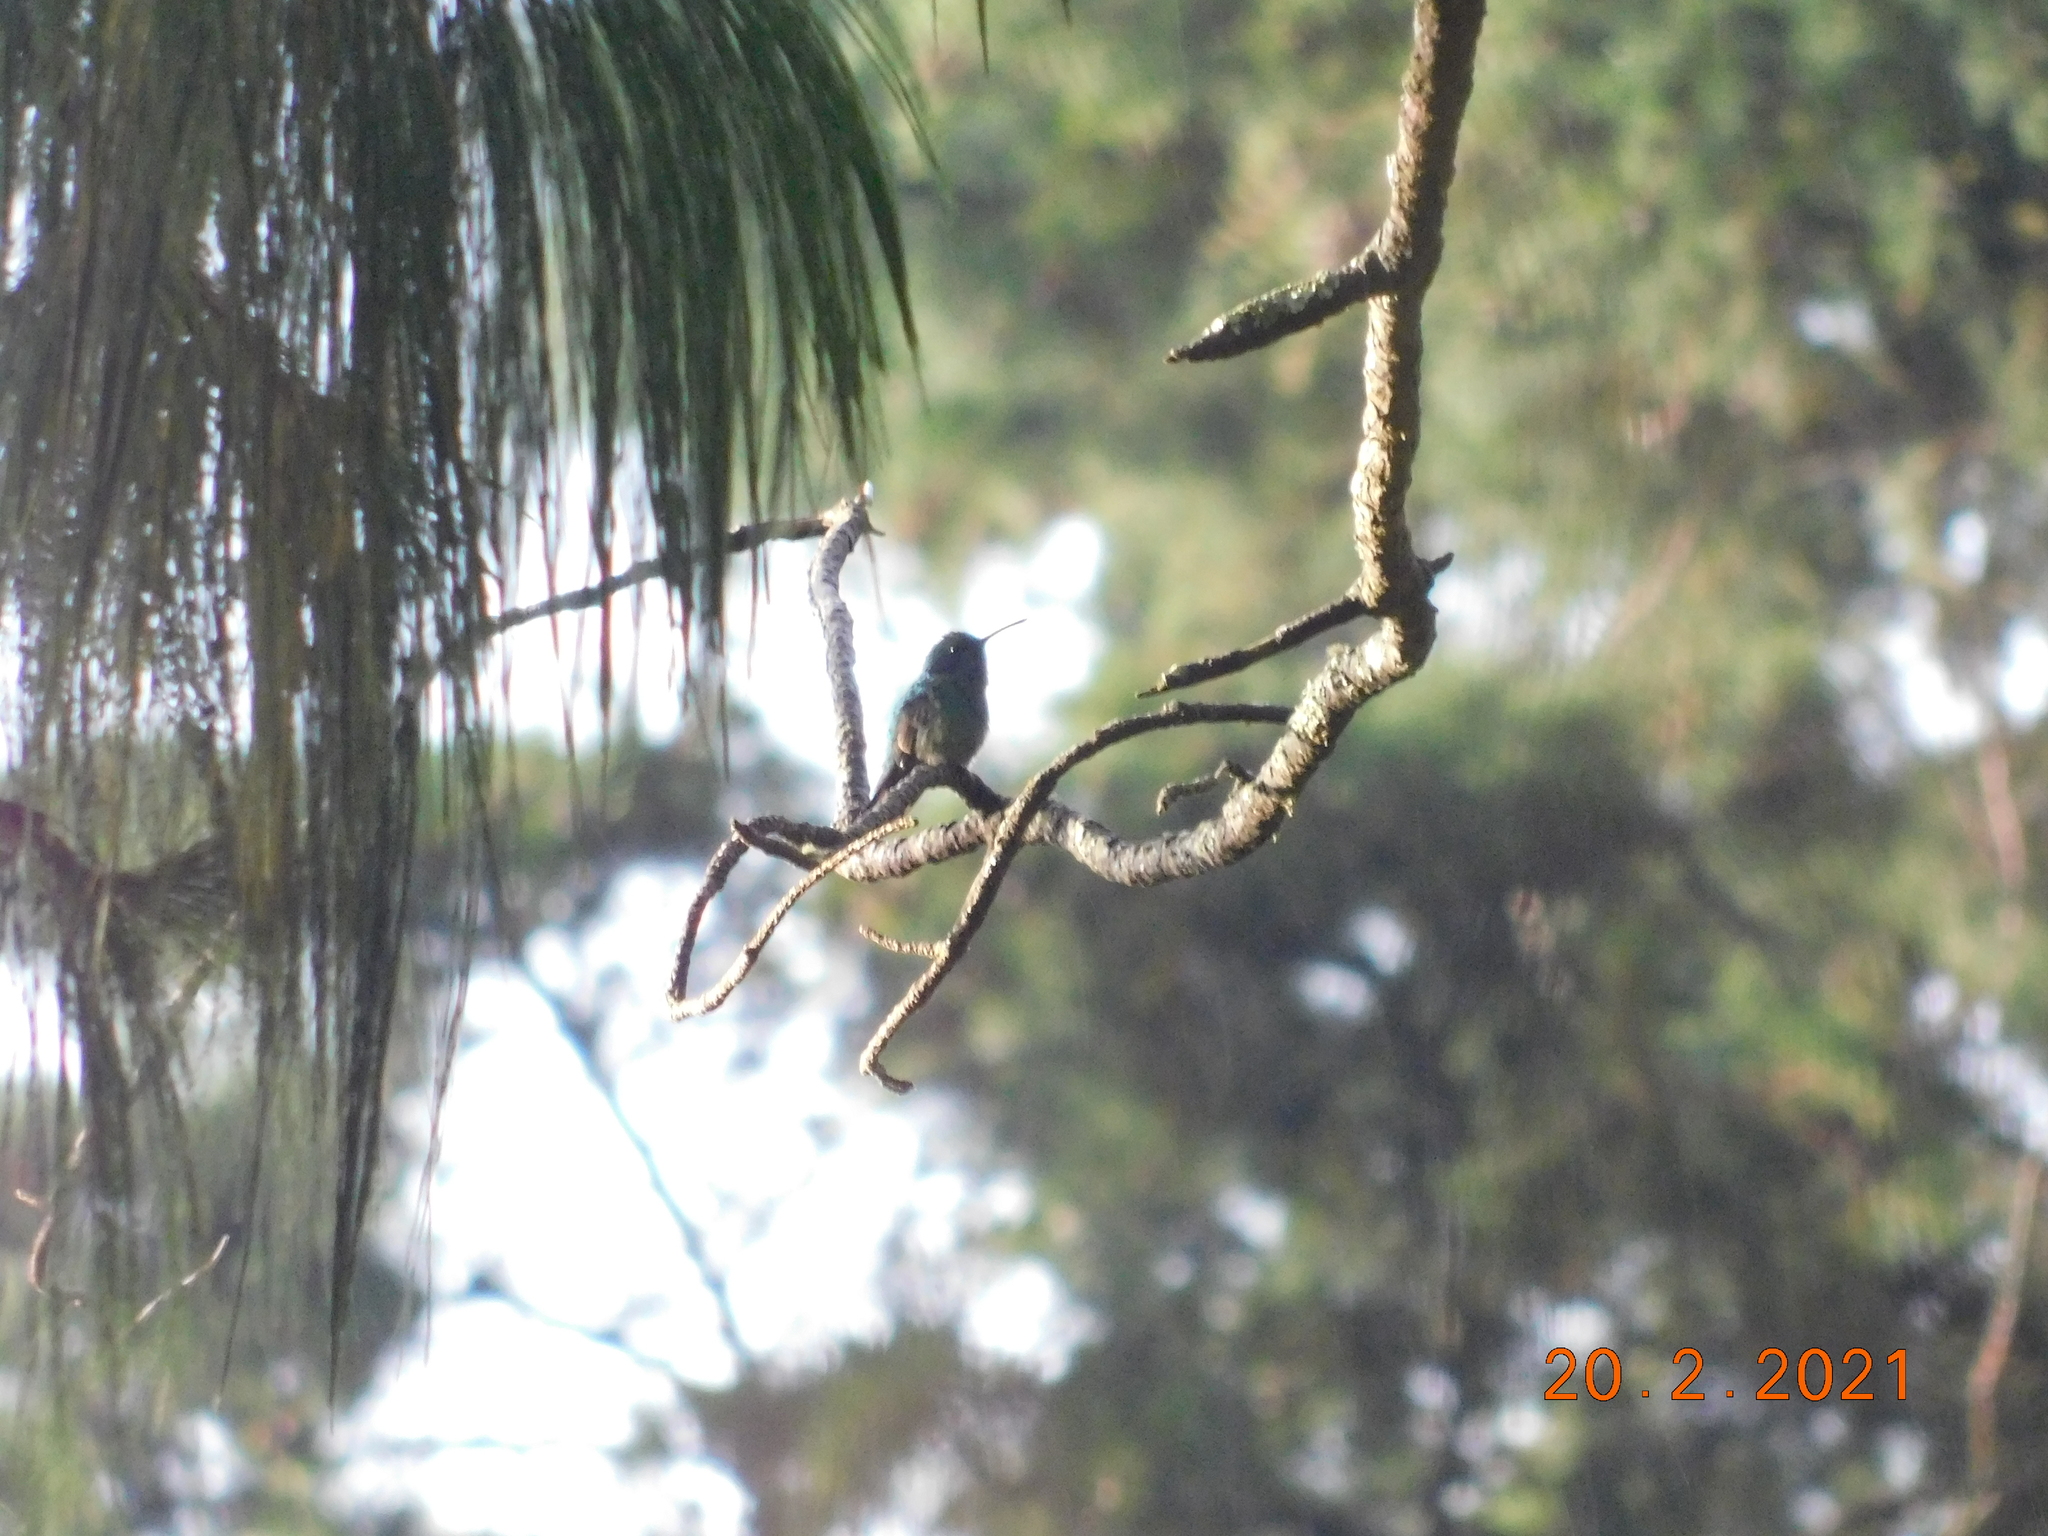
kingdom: Animalia
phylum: Chordata
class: Aves
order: Apodiformes
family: Trochilidae
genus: Eupherusa
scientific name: Eupherusa eximia
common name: Stripe-tailed hummingbird
